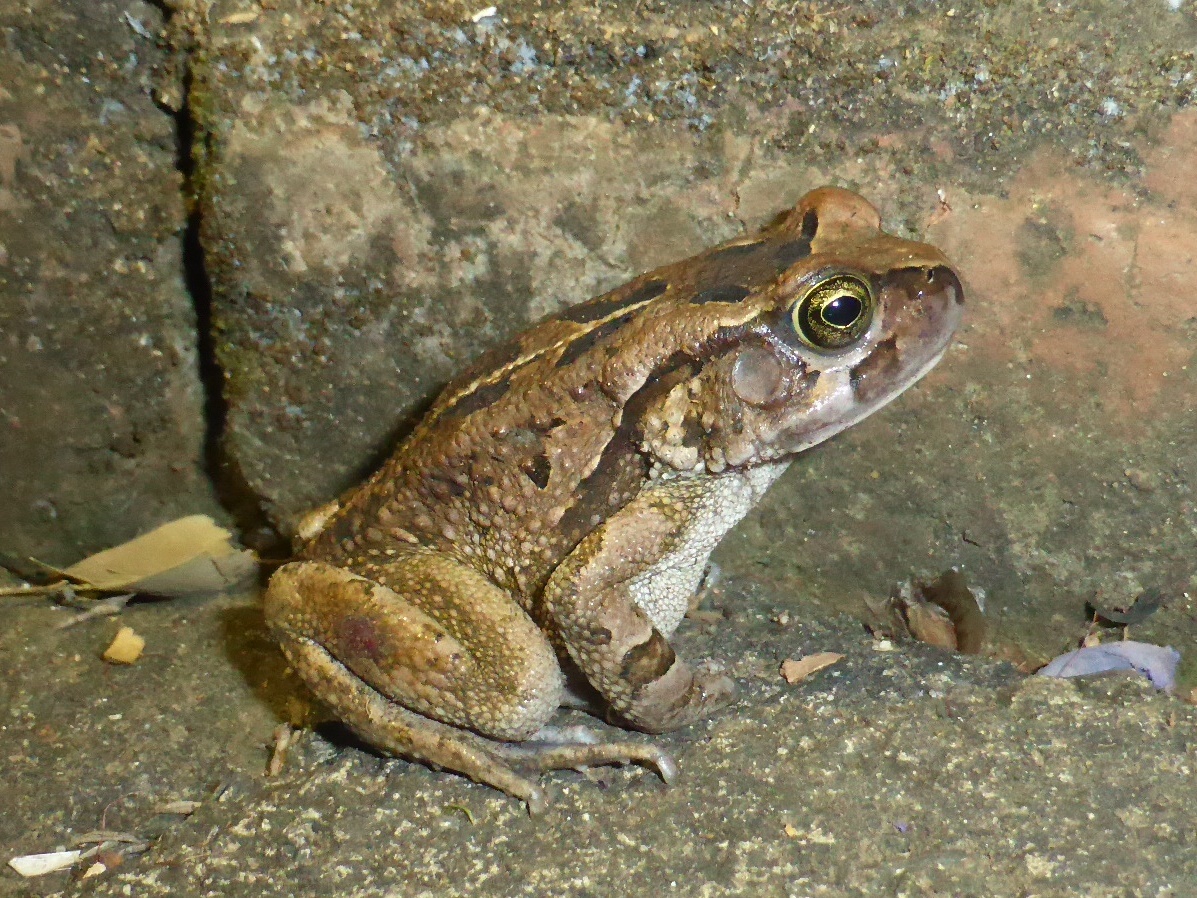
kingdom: Animalia
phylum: Chordata
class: Amphibia
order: Anura
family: Bufonidae
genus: Sclerophrys
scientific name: Sclerophrys capensis
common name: Ranger’s toad
